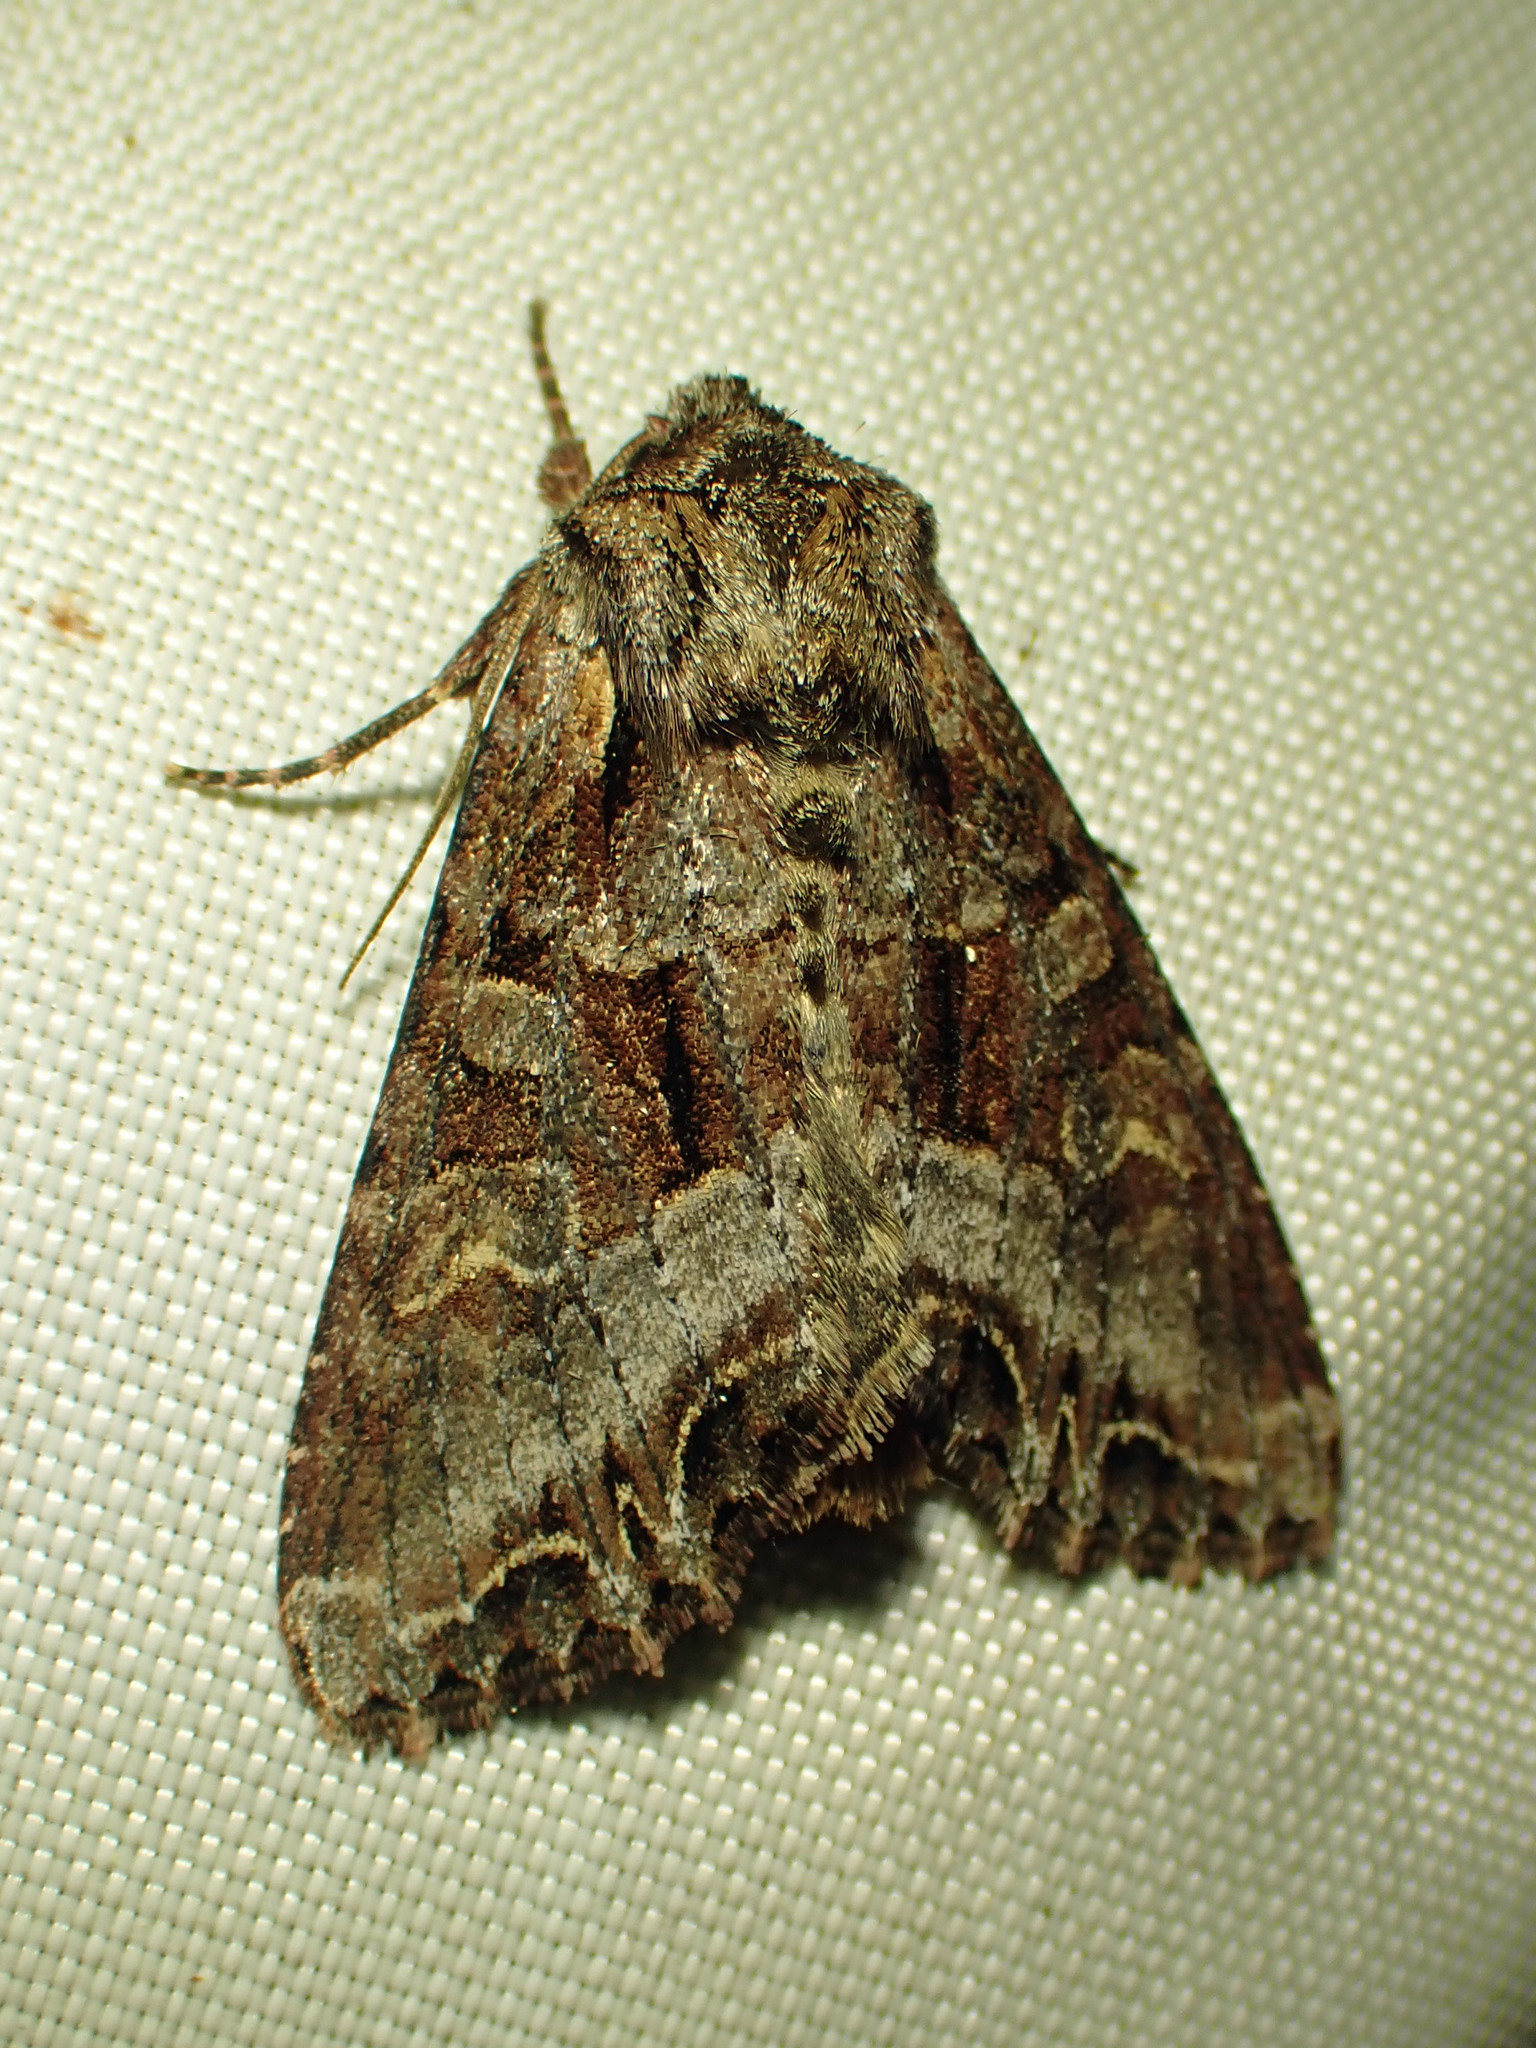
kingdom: Animalia
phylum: Arthropoda
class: Insecta
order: Lepidoptera
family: Noctuidae
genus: Lacanobia
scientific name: Lacanobia grandis
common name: Grand arches moth
